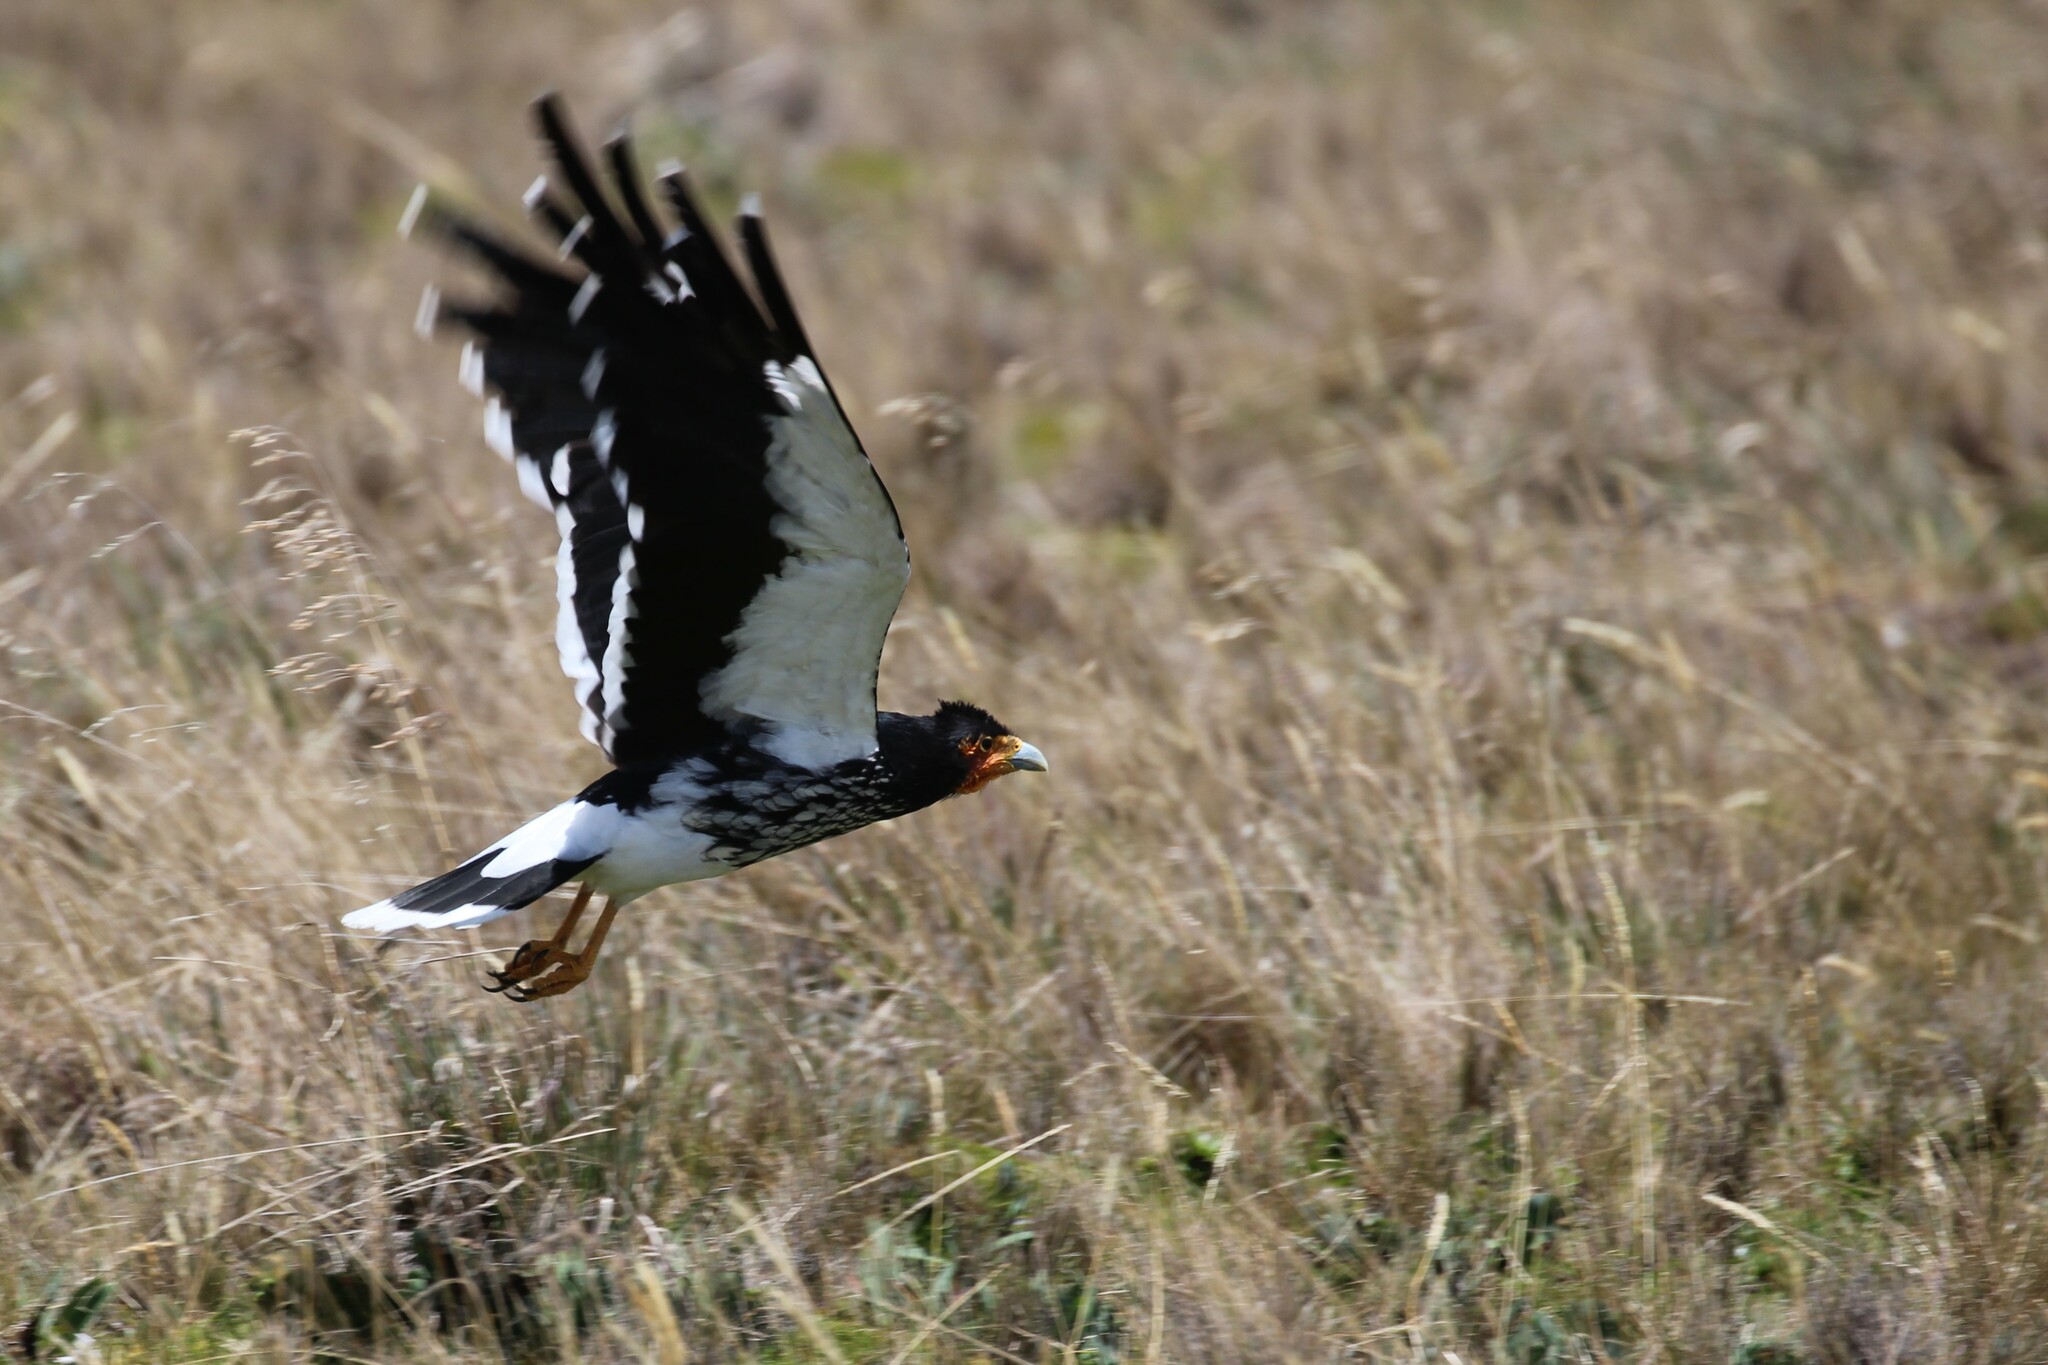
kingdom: Animalia
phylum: Chordata
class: Aves
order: Falconiformes
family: Falconidae
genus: Daptrius
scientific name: Daptrius
